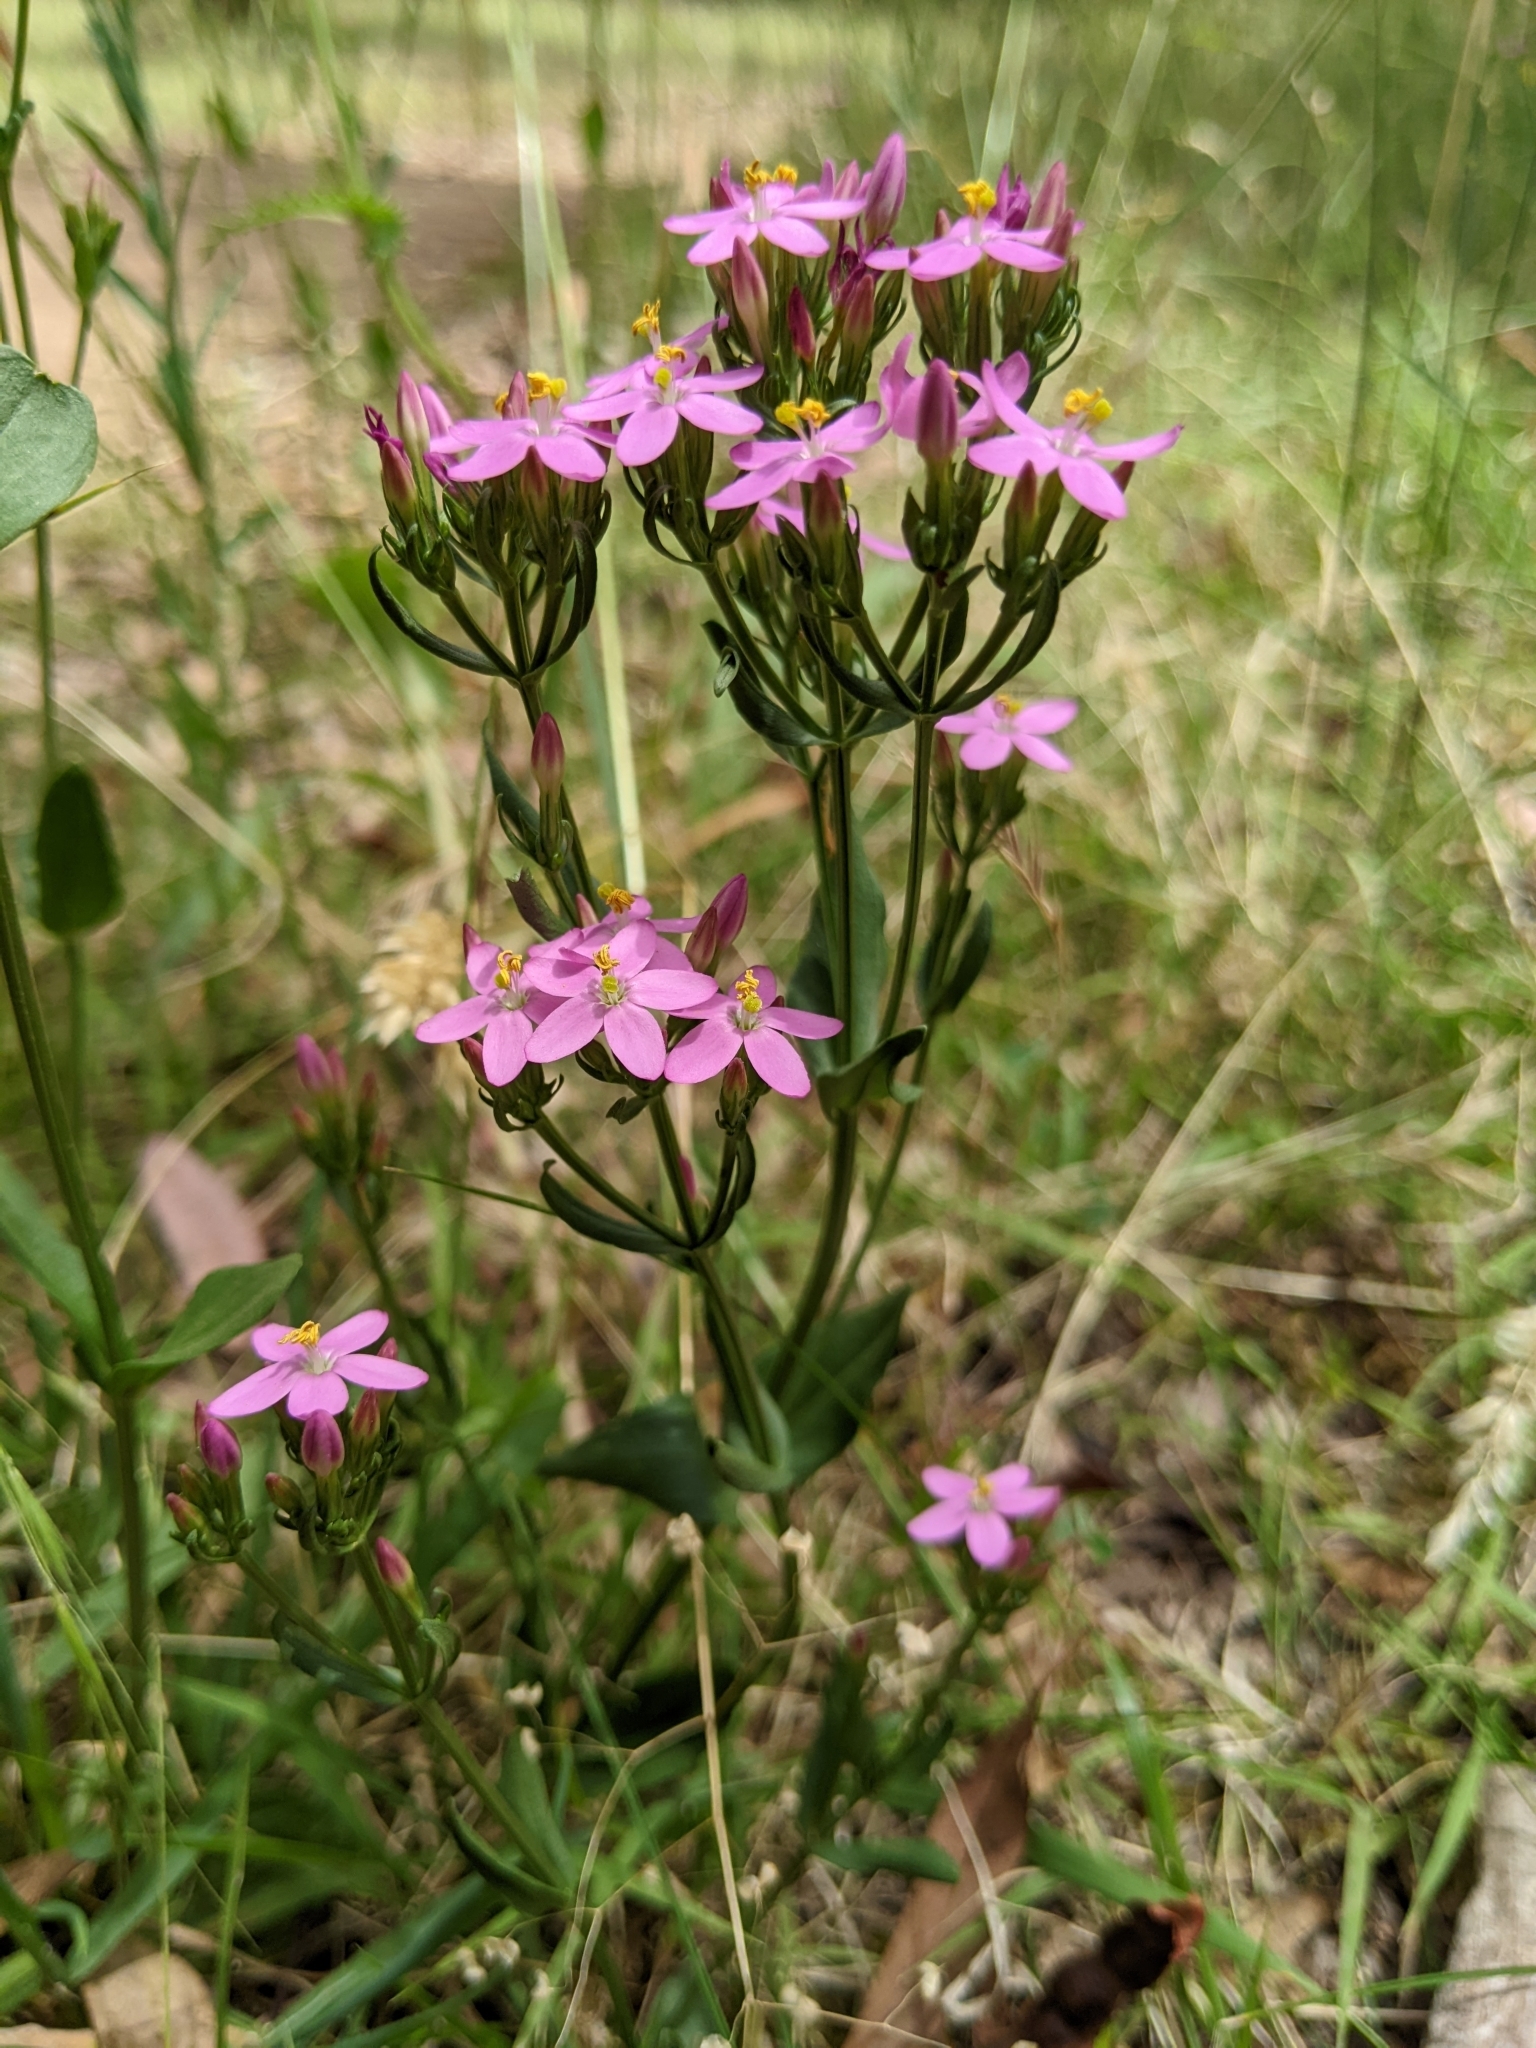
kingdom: Plantae
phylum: Tracheophyta
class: Magnoliopsida
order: Gentianales
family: Gentianaceae
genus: Centaurium
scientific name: Centaurium erythraea
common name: Common centaury
